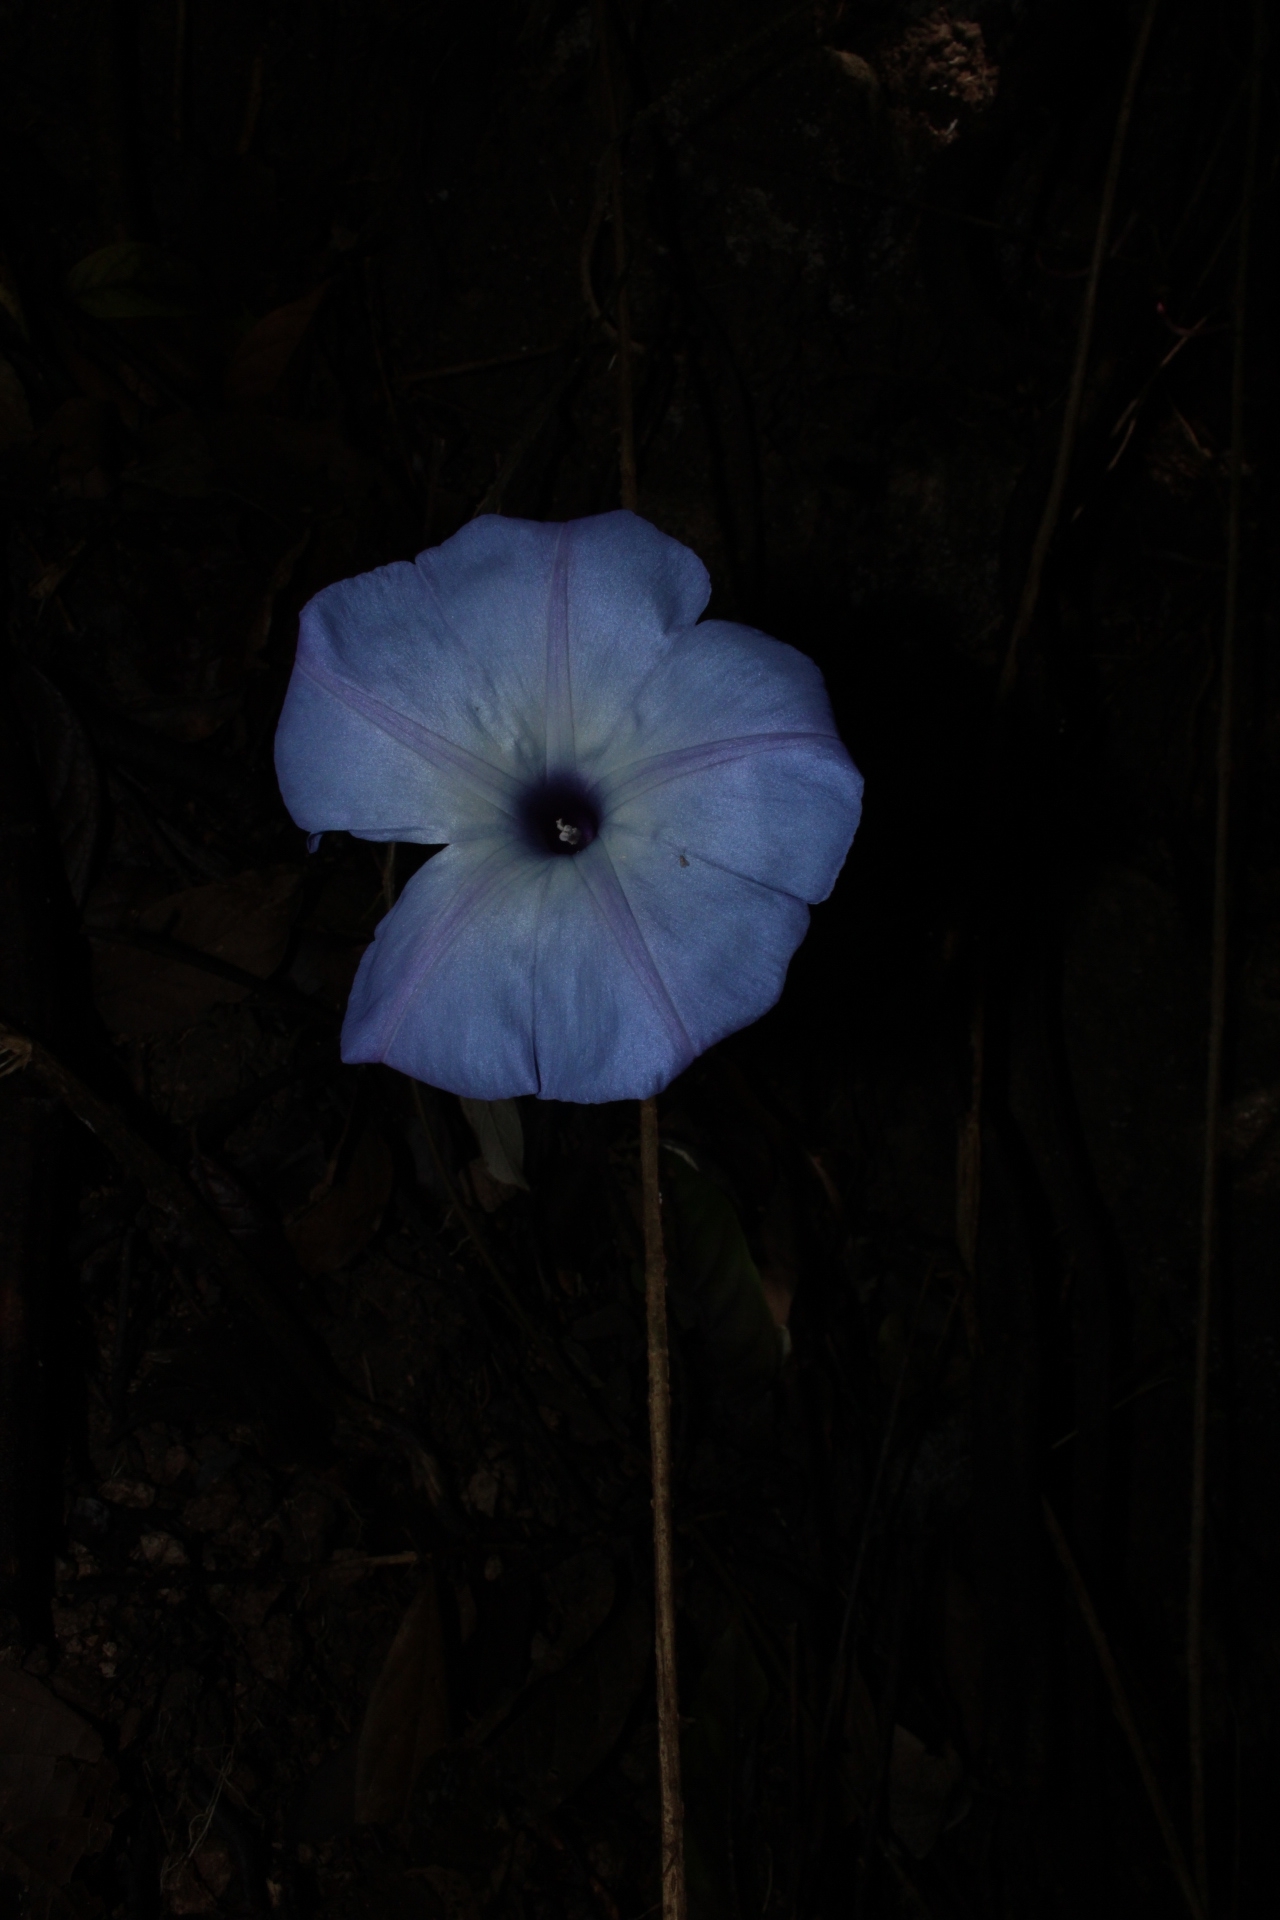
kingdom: Plantae
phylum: Tracheophyta
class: Magnoliopsida
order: Solanales
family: Convolvulaceae
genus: Ipomoea
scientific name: Ipomoea regnellii
